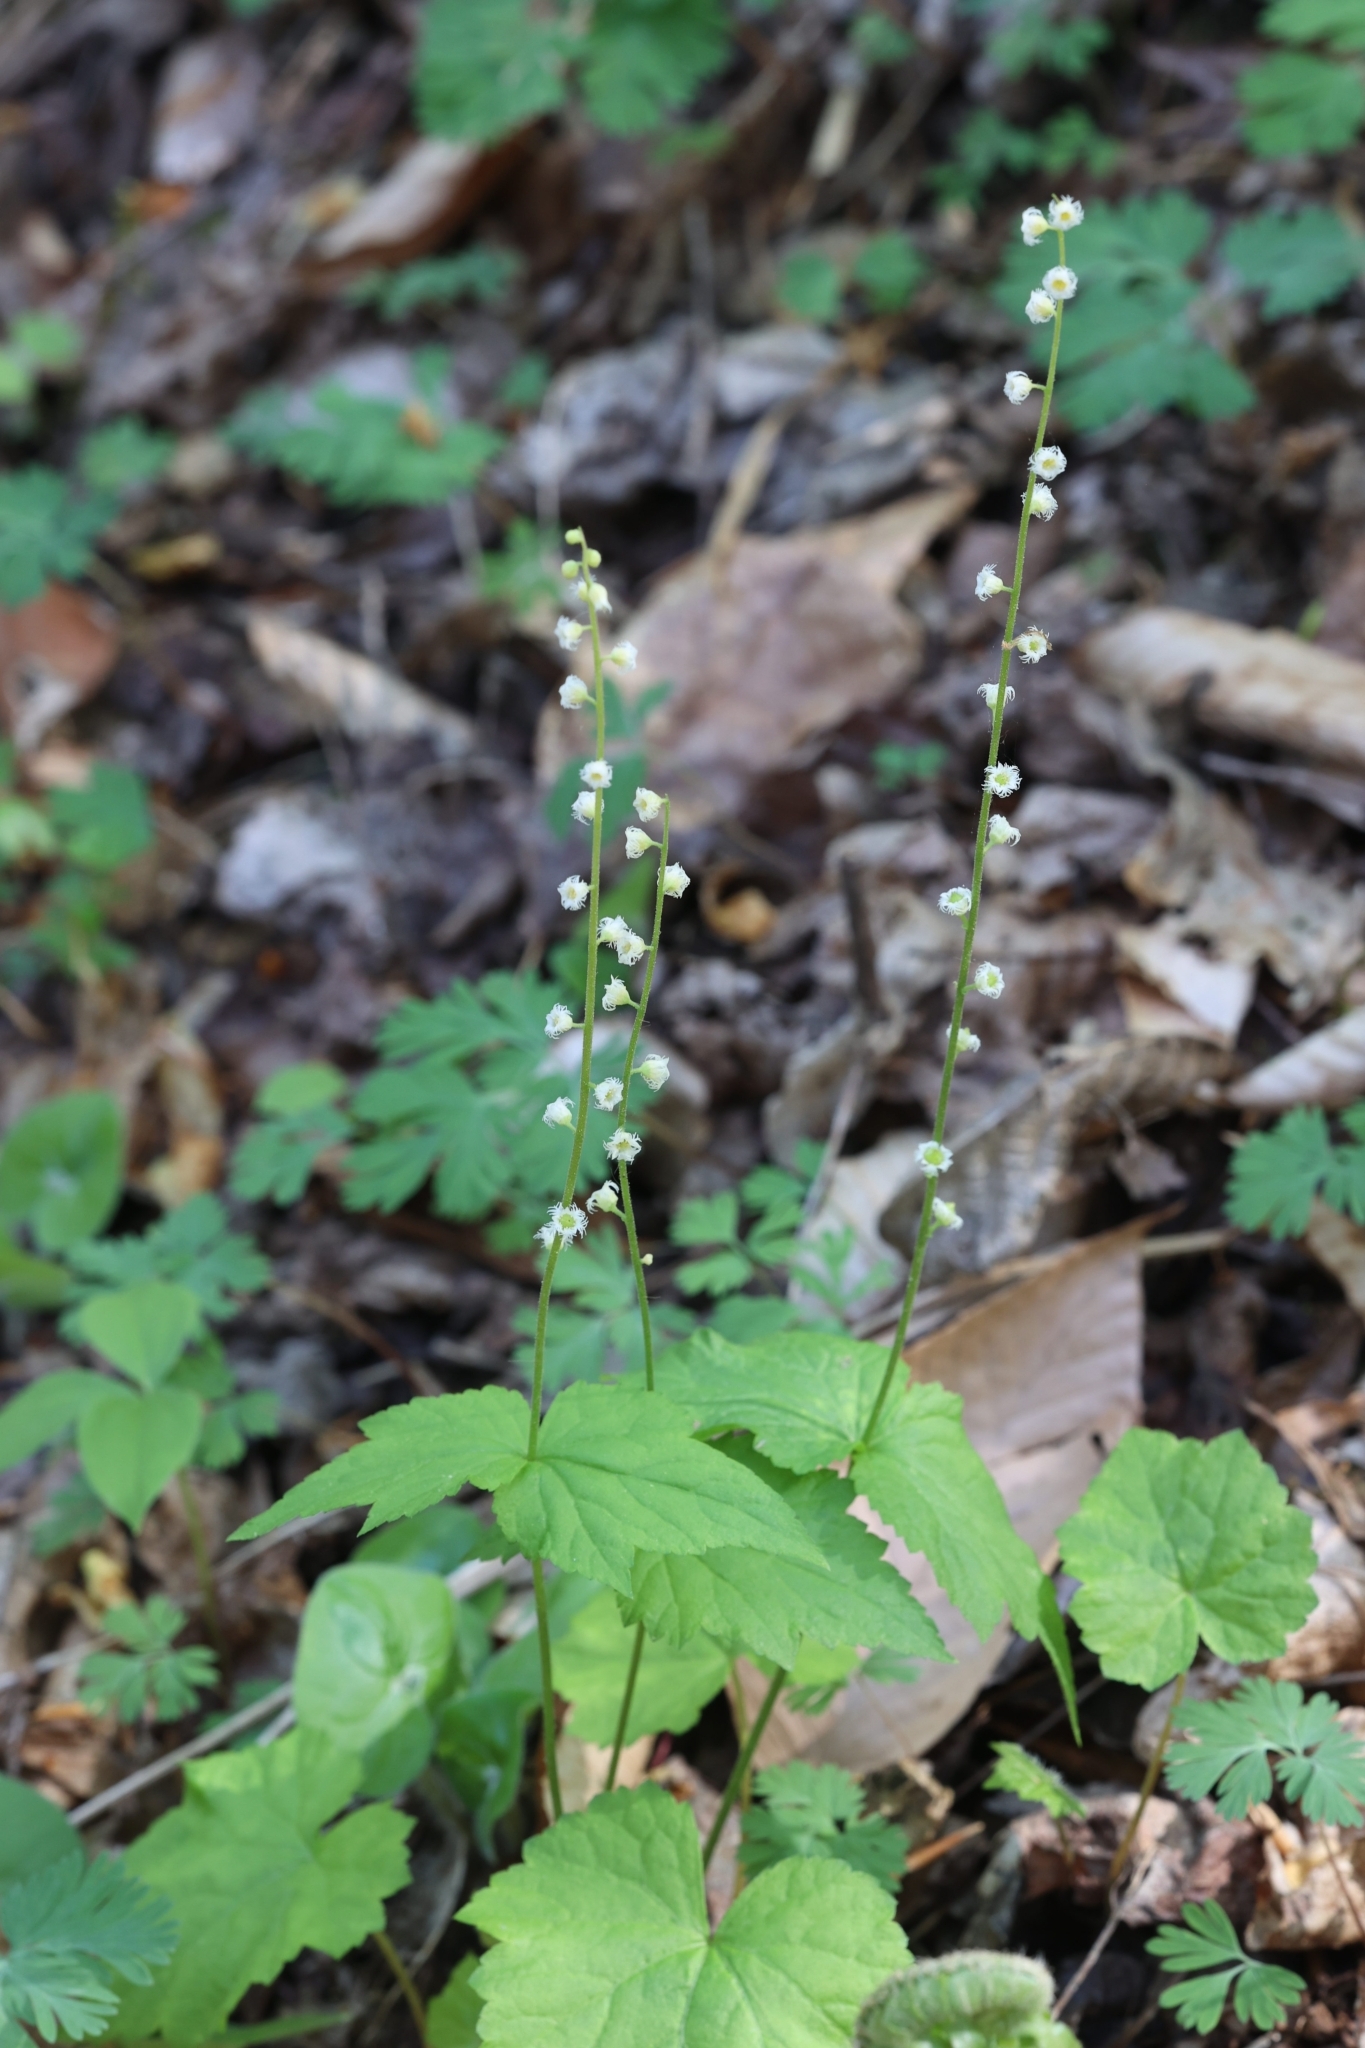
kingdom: Plantae
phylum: Tracheophyta
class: Magnoliopsida
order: Saxifragales
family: Saxifragaceae
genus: Mitella
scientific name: Mitella diphylla
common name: Coolwort
